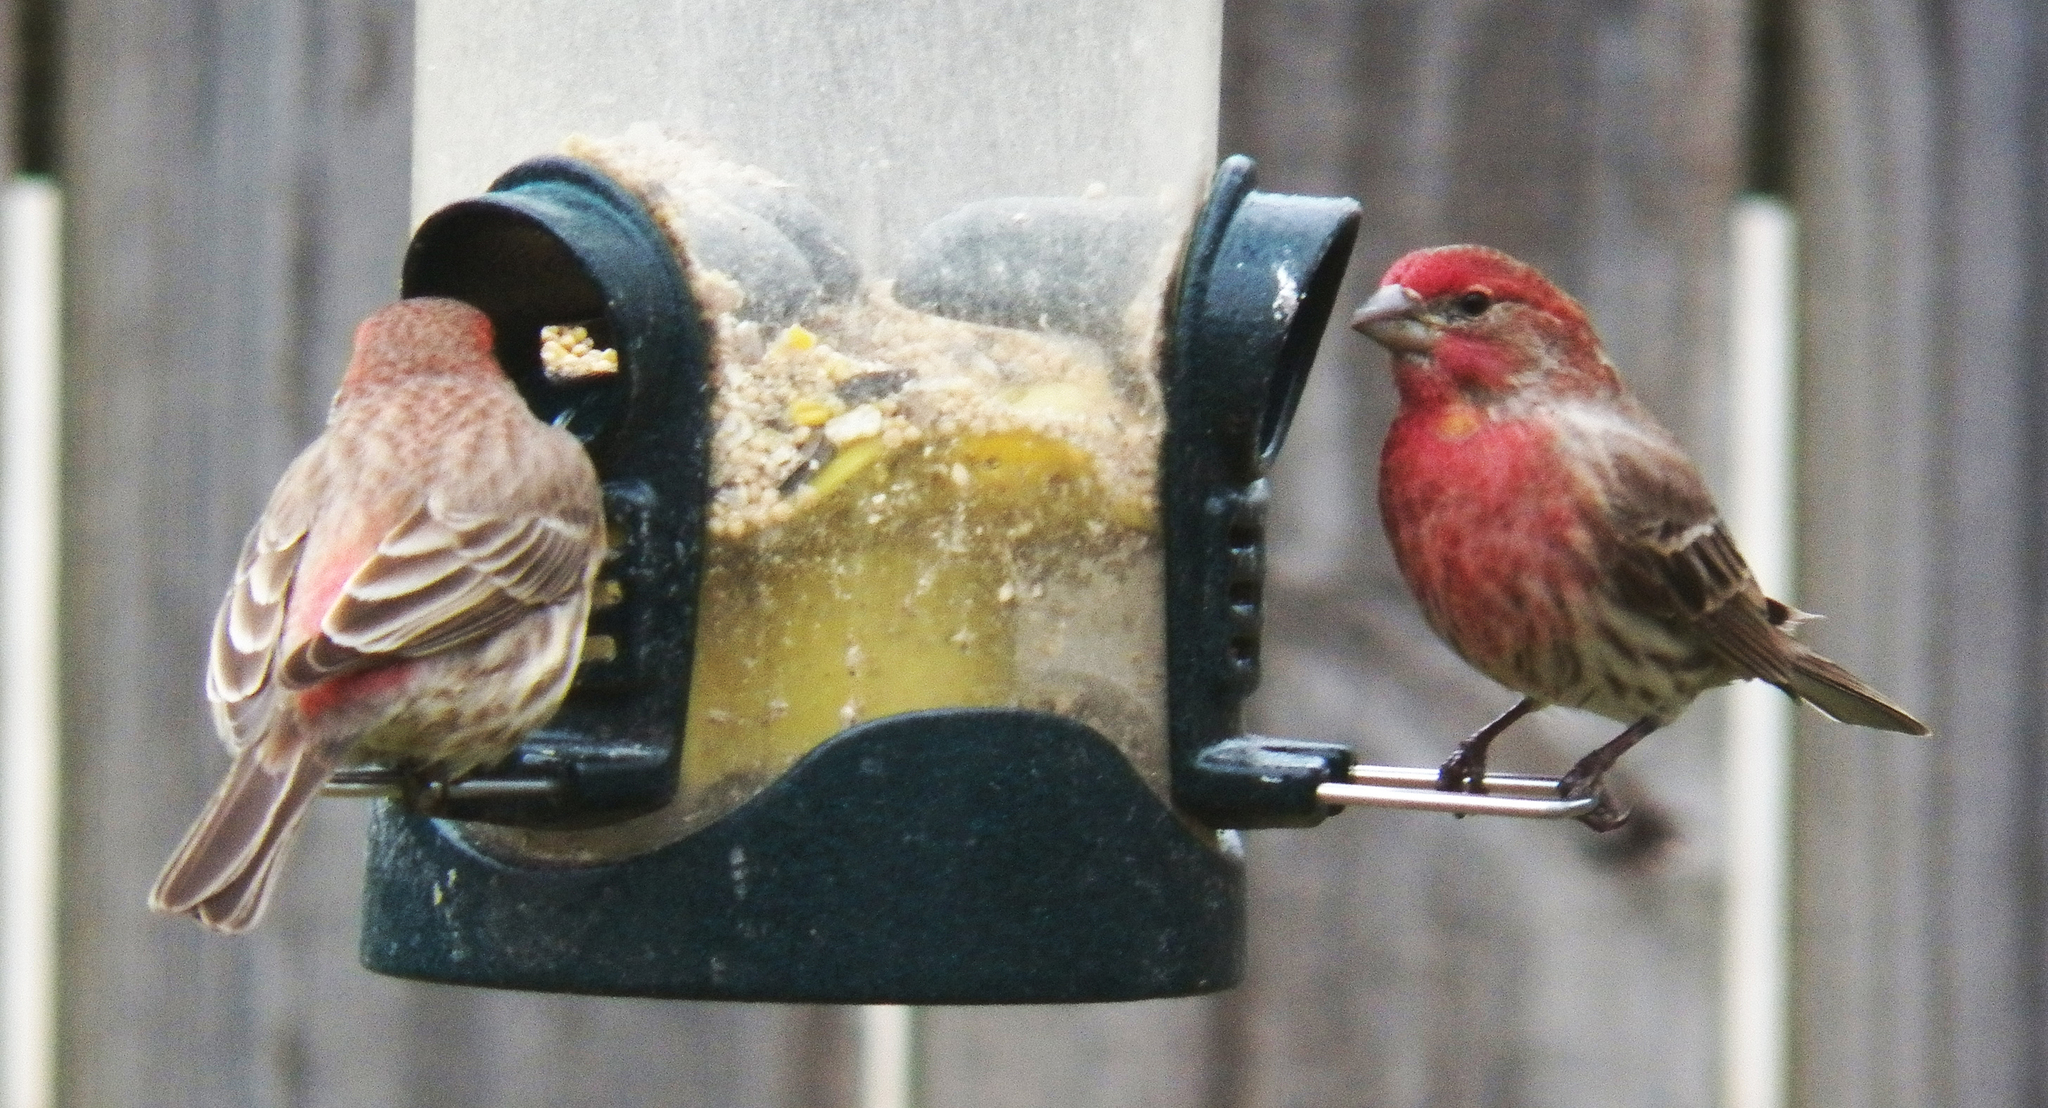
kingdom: Animalia
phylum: Chordata
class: Aves
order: Passeriformes
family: Fringillidae
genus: Haemorhous
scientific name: Haemorhous mexicanus
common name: House finch
